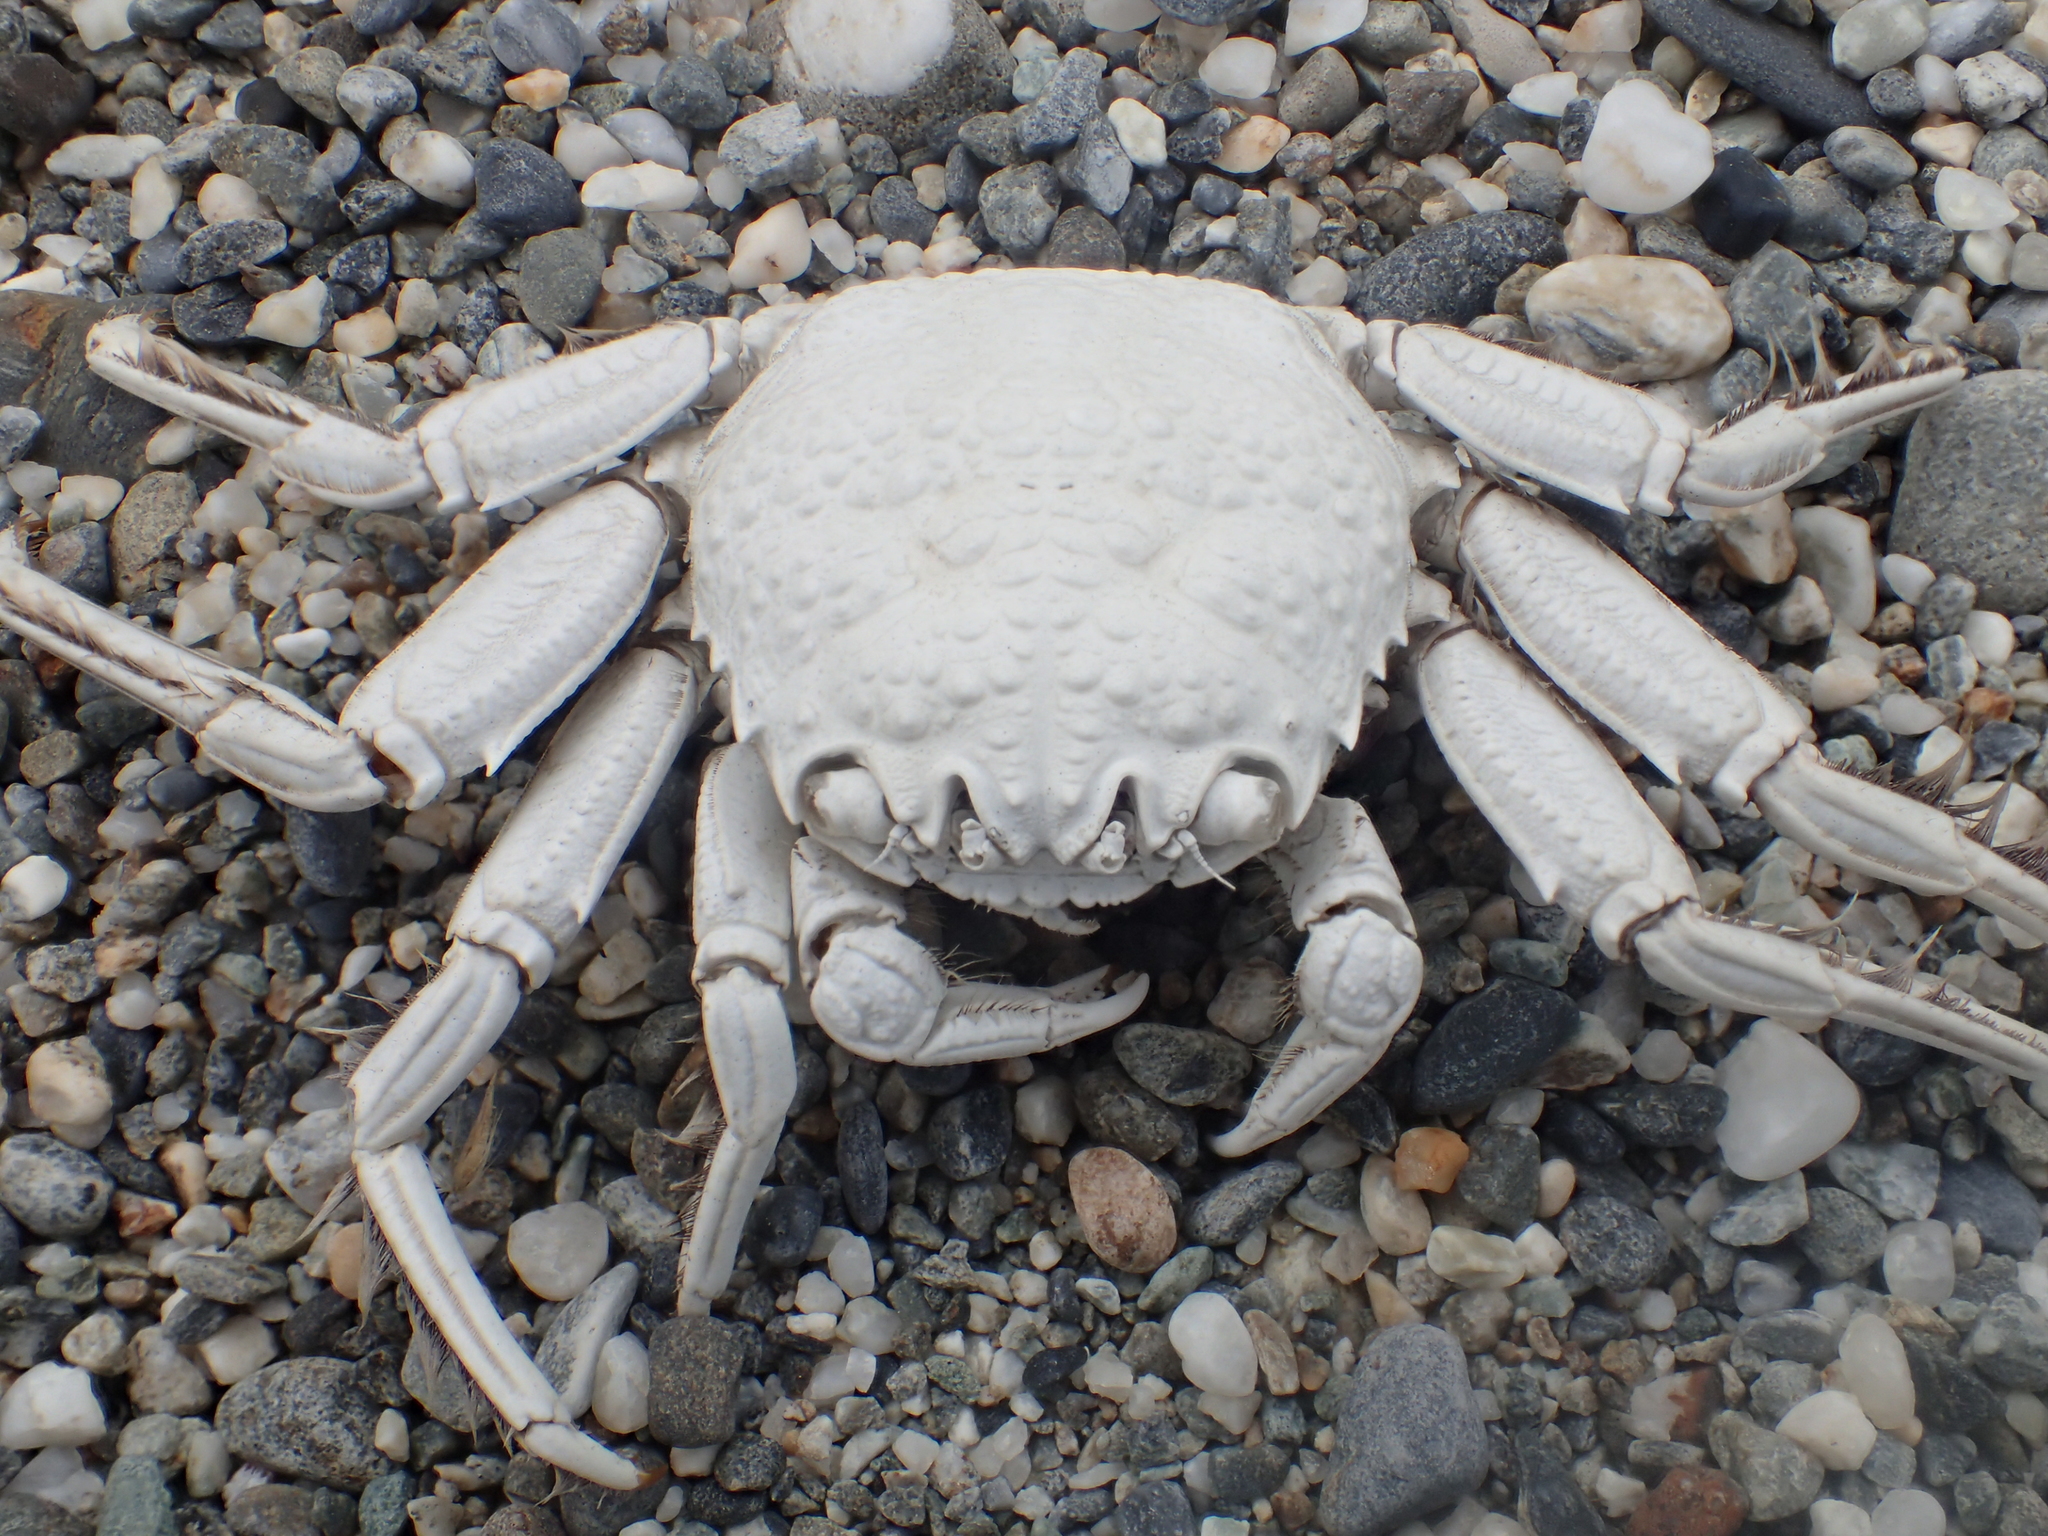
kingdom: Animalia
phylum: Arthropoda
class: Malacostraca
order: Decapoda
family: Plagusiidae
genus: Plagusia
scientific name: Plagusia squamosa
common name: Scaly rock crab
